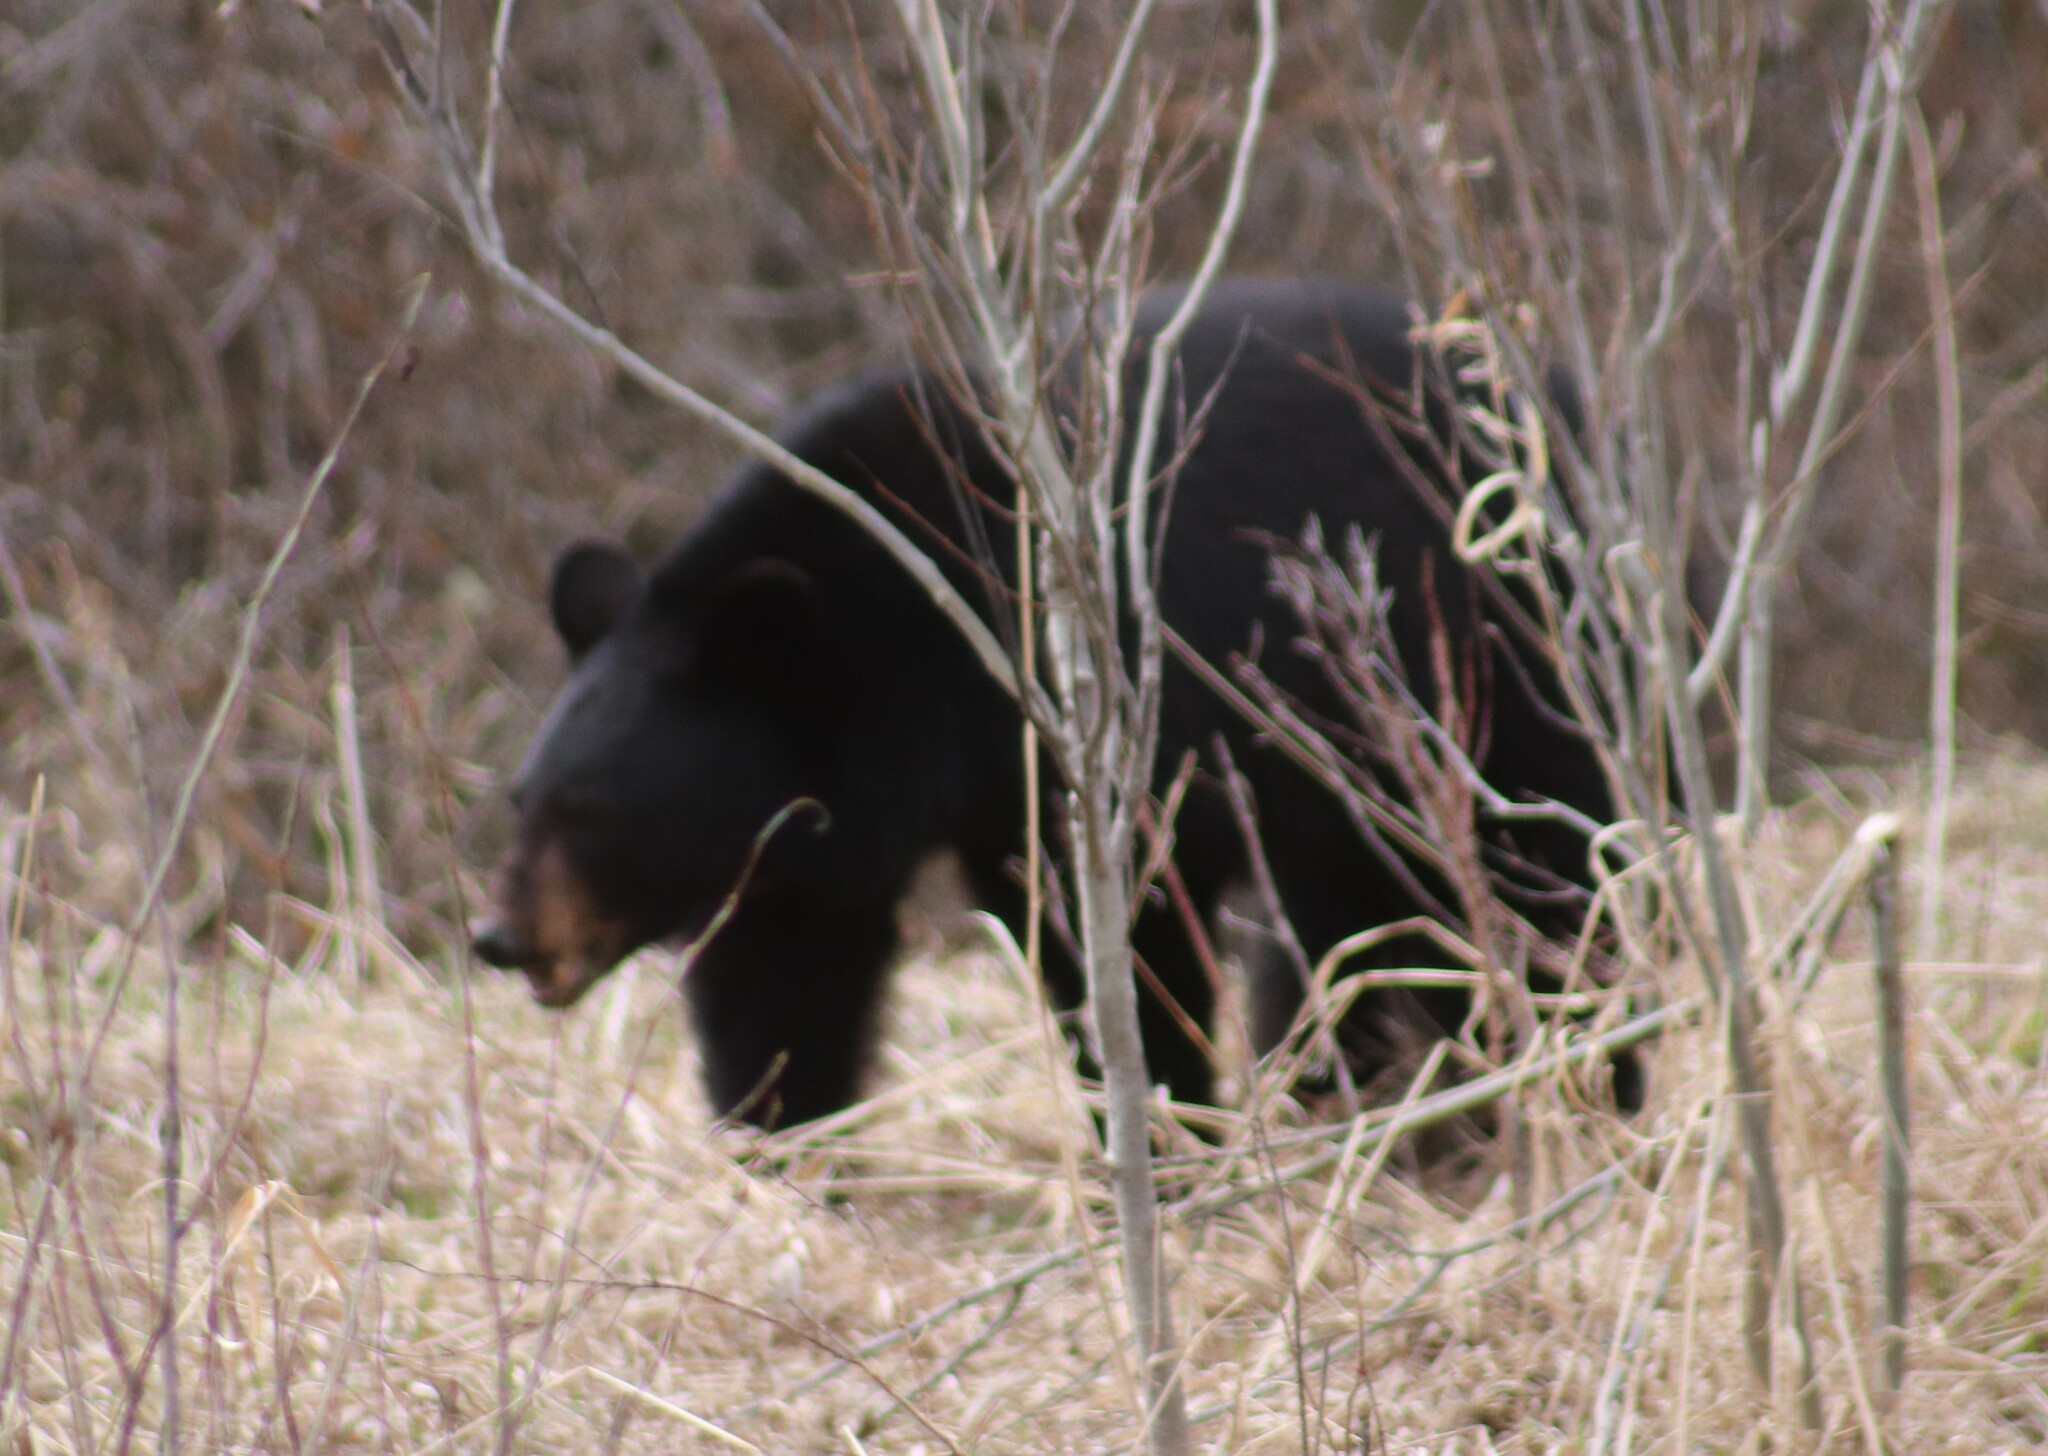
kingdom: Animalia
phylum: Chordata
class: Mammalia
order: Carnivora
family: Ursidae
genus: Ursus
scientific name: Ursus americanus
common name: American black bear
